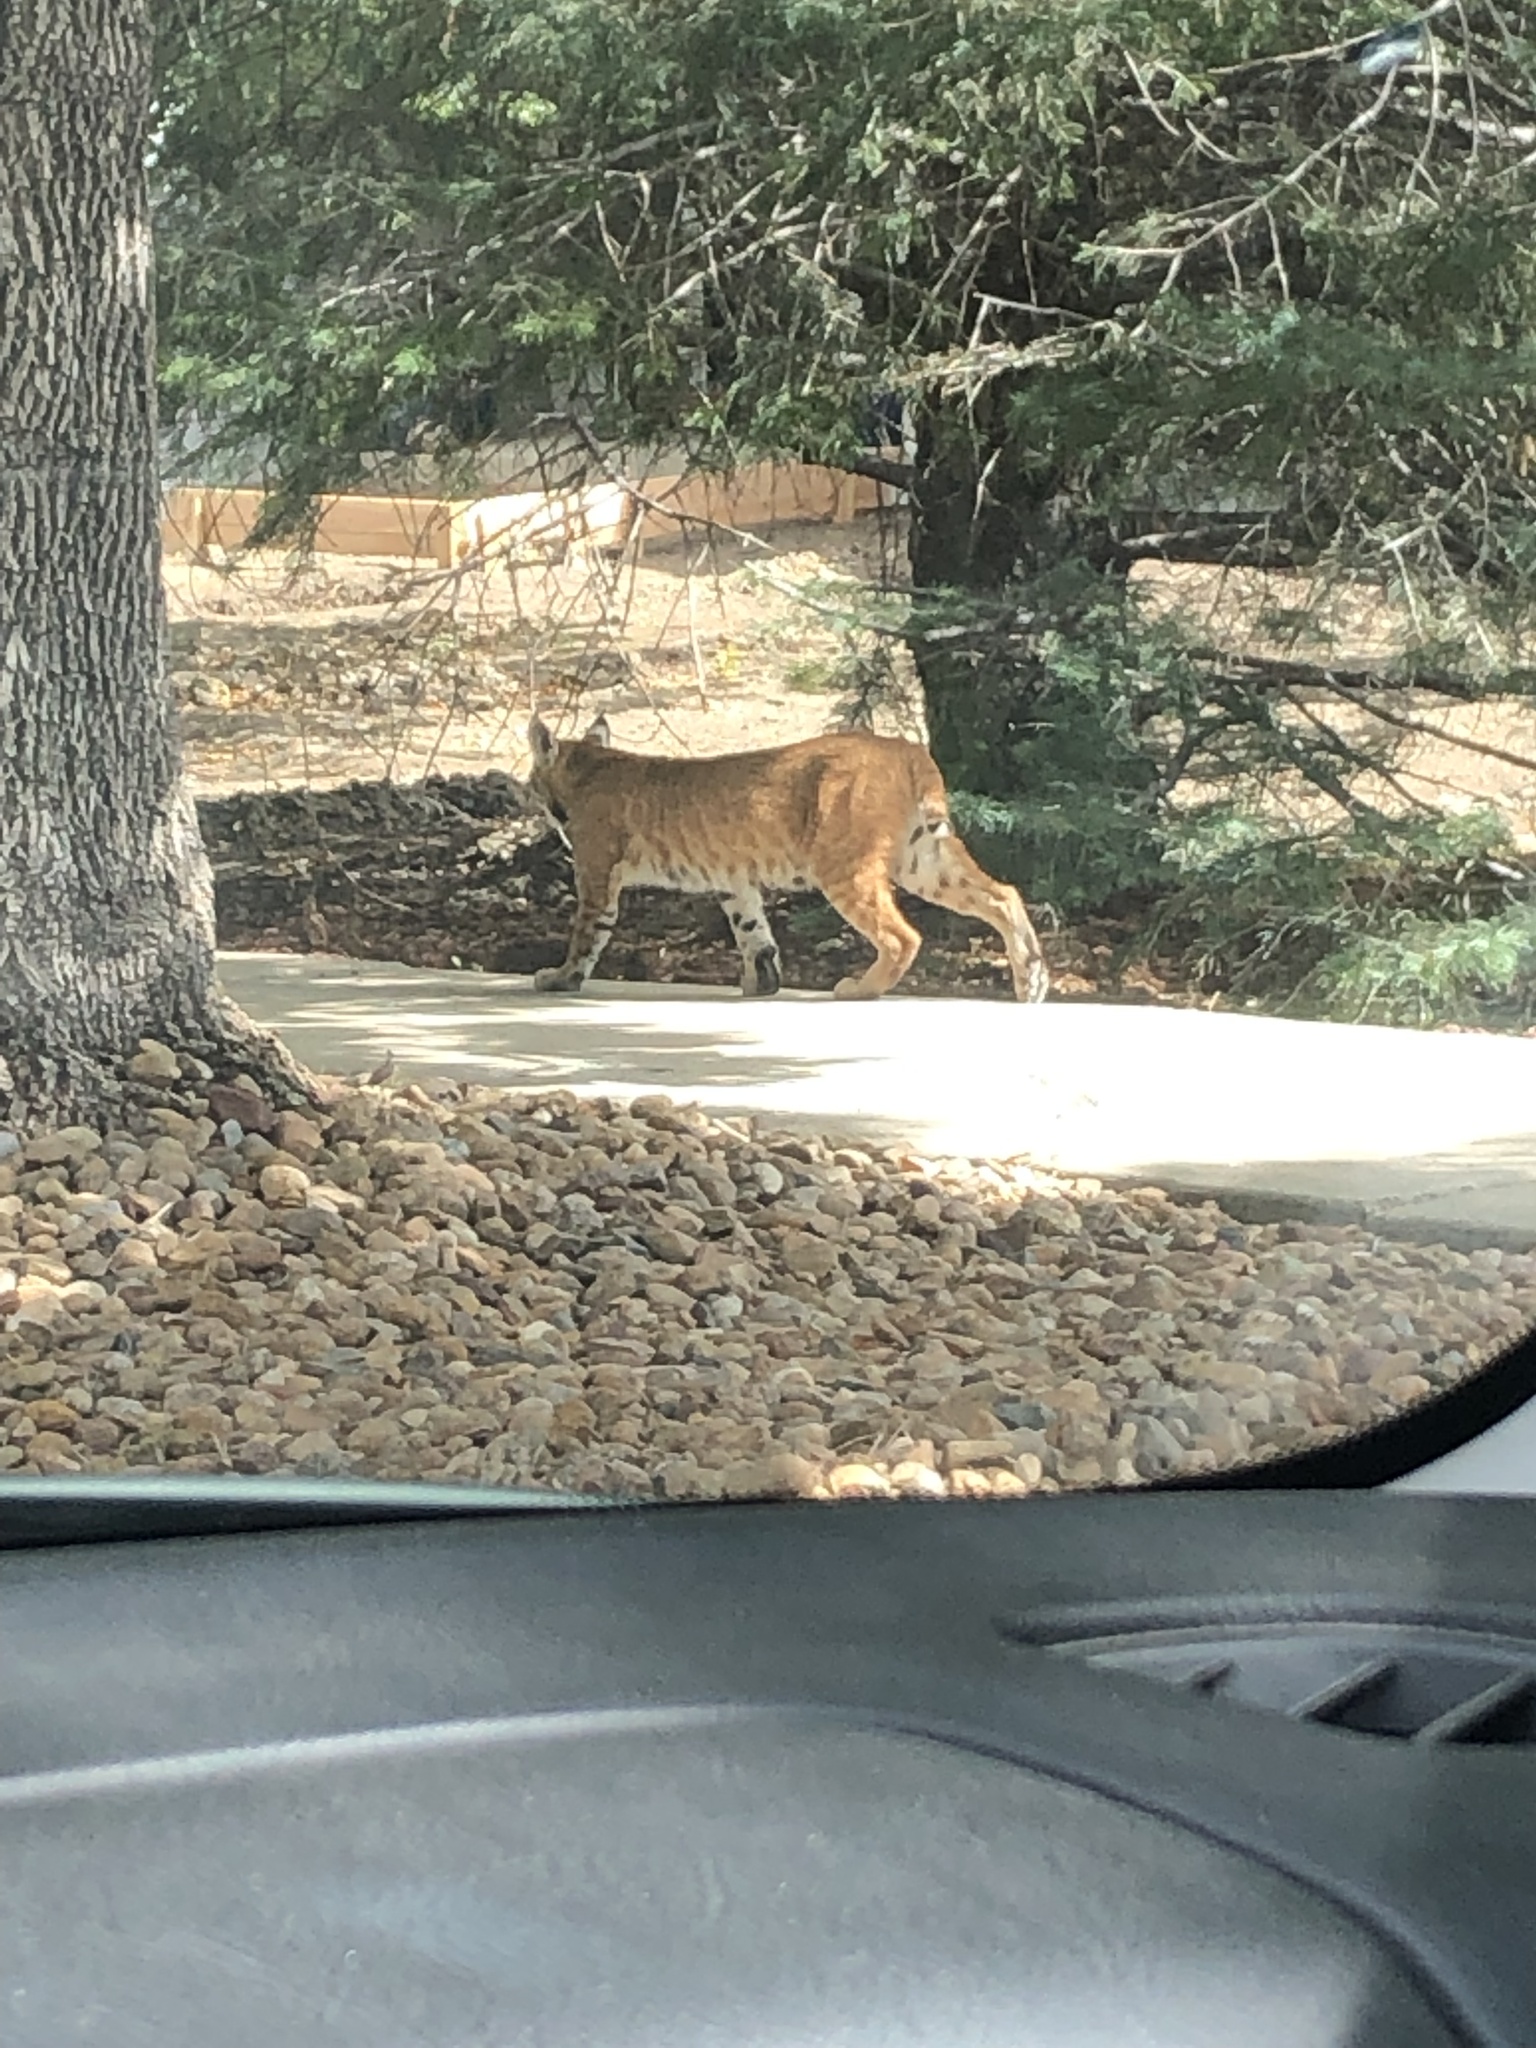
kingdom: Animalia
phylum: Chordata
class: Mammalia
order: Carnivora
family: Felidae
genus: Lynx
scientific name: Lynx rufus
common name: Bobcat
